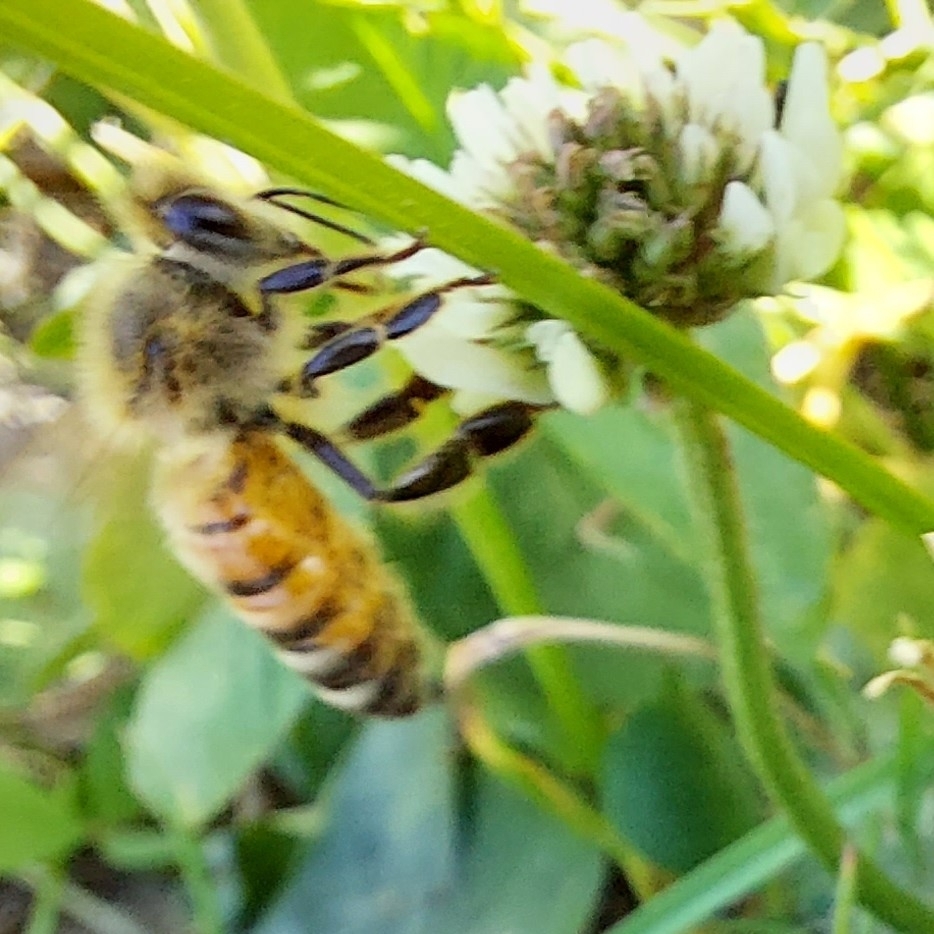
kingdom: Animalia
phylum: Arthropoda
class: Insecta
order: Hymenoptera
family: Apidae
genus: Apis
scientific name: Apis mellifera
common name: Honey bee
